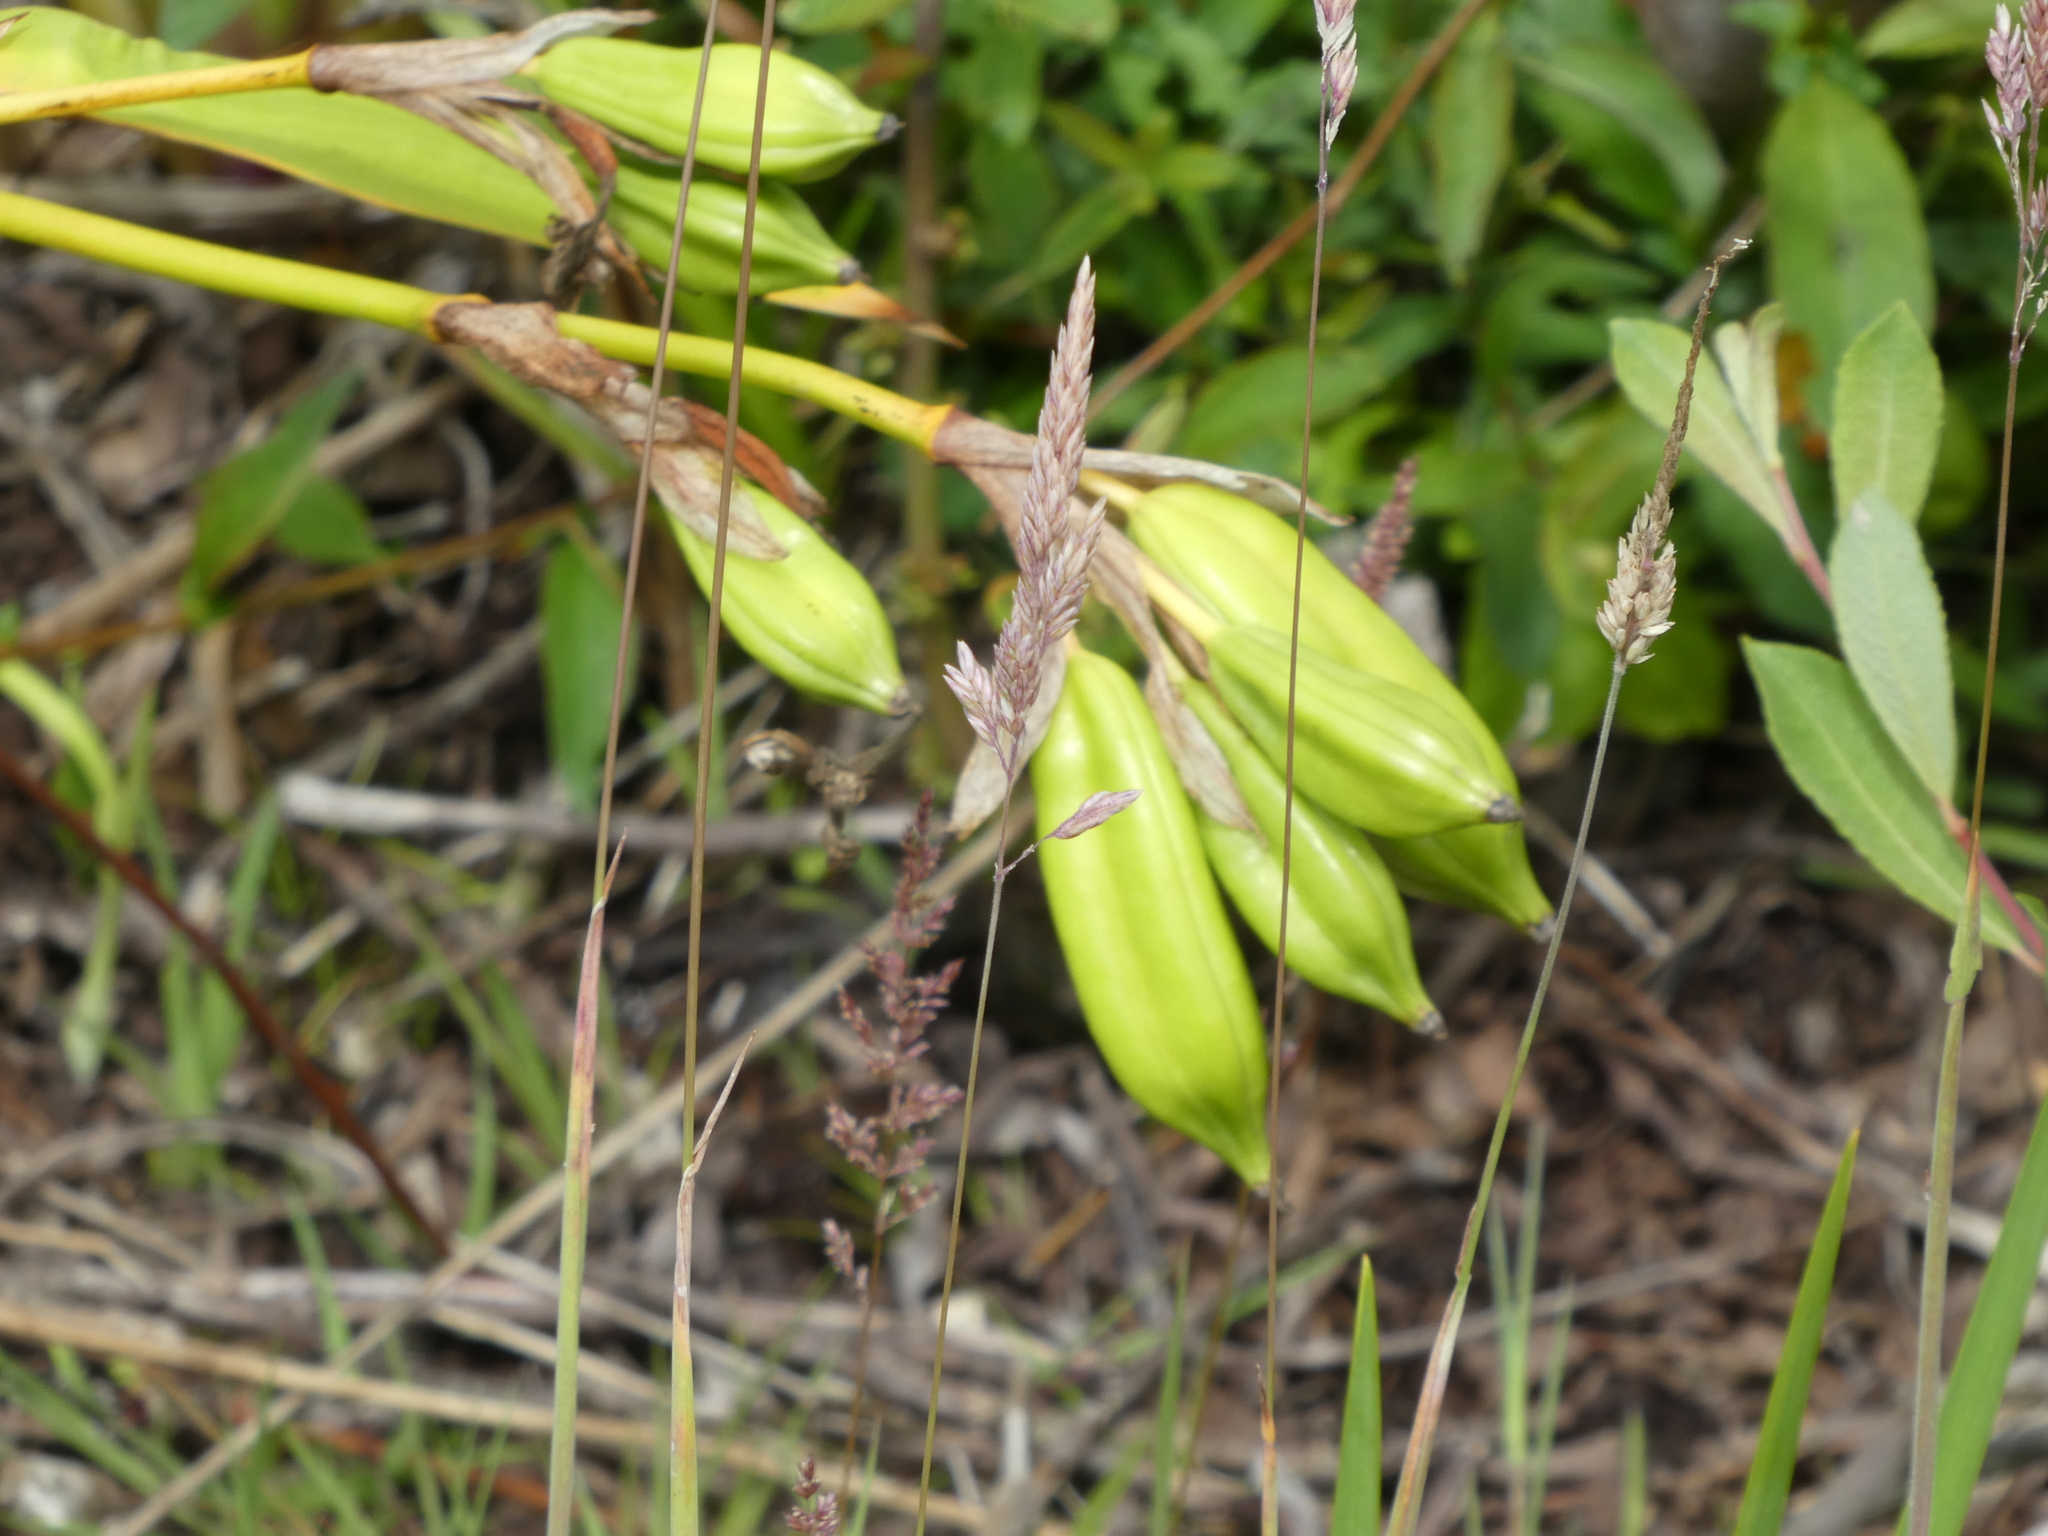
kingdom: Plantae
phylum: Tracheophyta
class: Liliopsida
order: Asparagales
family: Iridaceae
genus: Iris
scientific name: Iris pseudacorus
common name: Yellow flag
